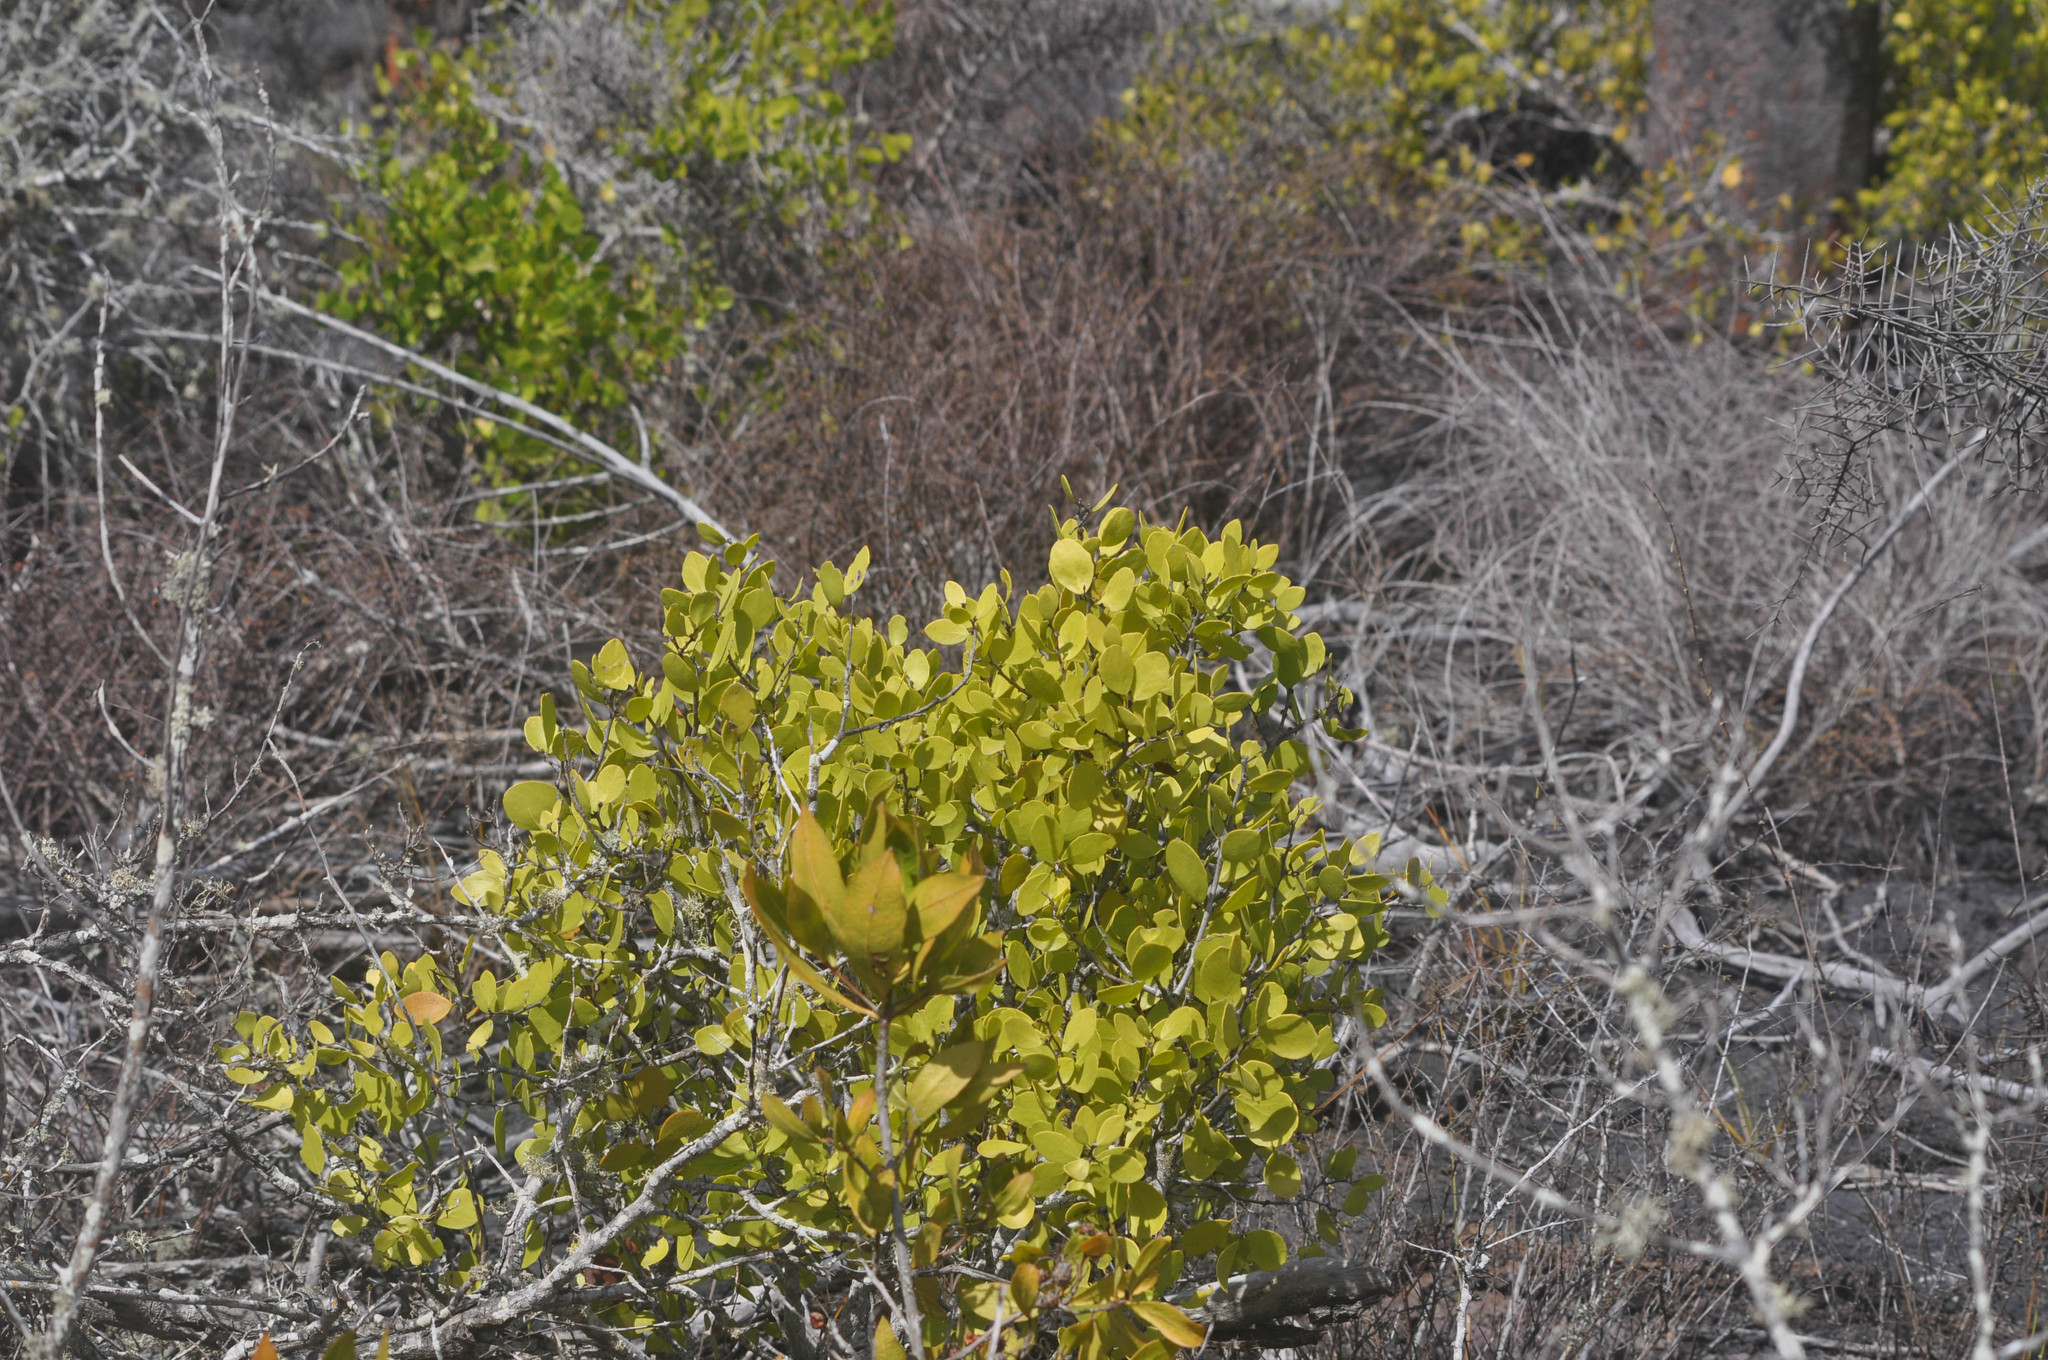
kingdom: Plantae
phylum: Tracheophyta
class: Magnoliopsida
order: Celastrales
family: Celastraceae
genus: Tricerma
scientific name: Tricerma octogonum
